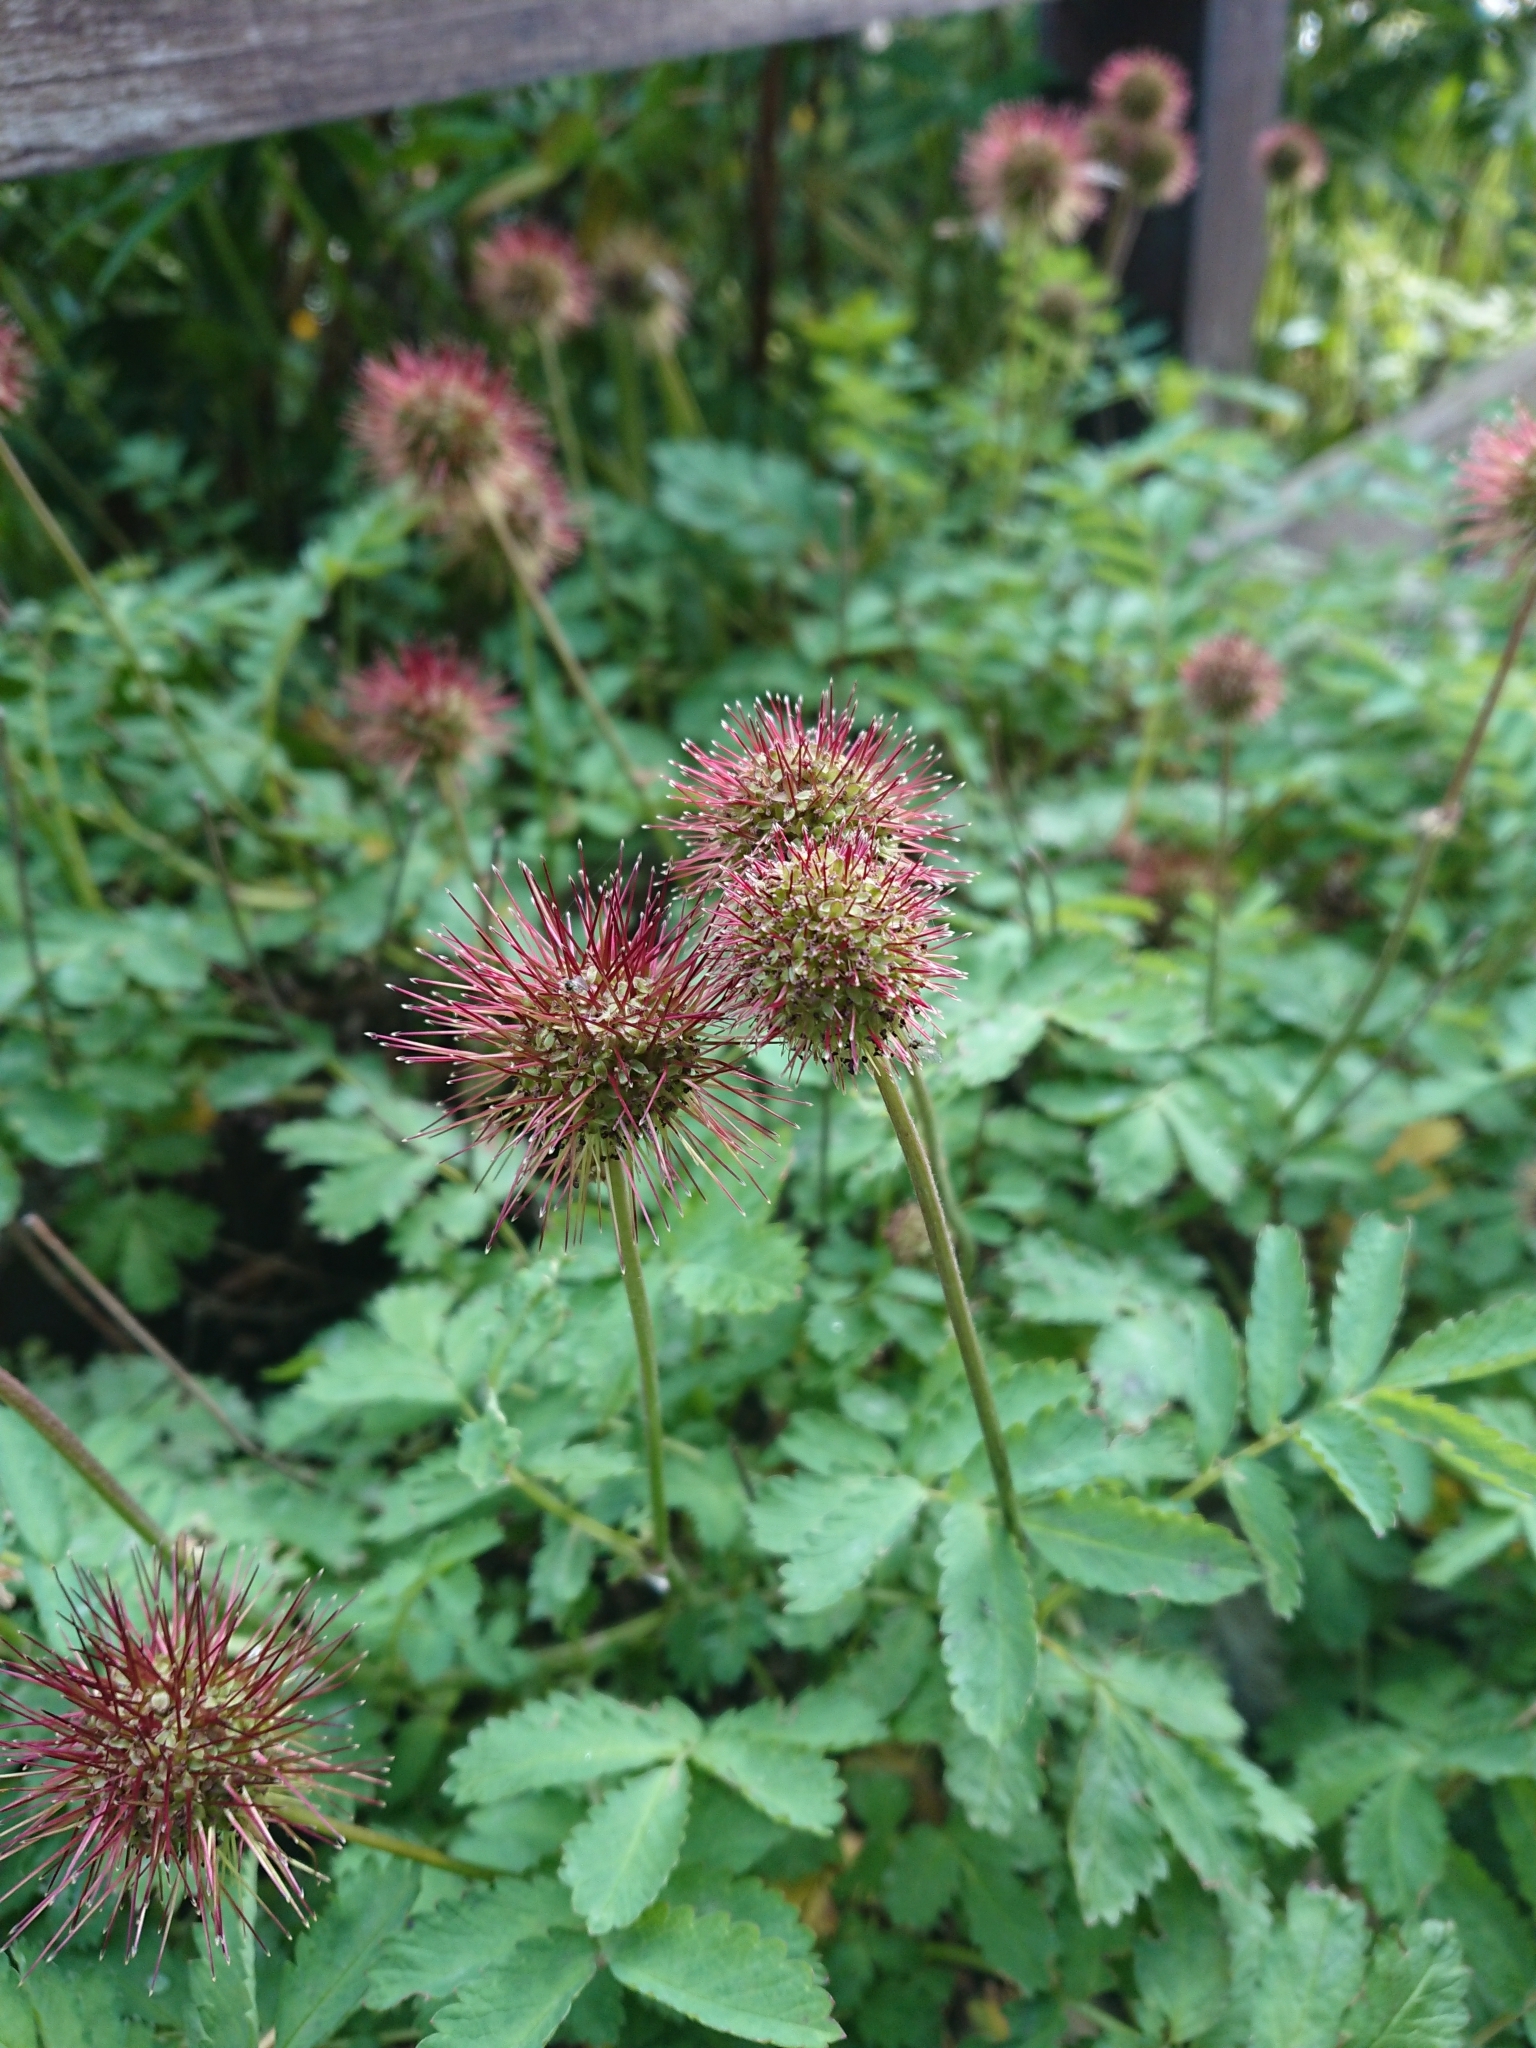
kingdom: Plantae
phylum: Tracheophyta
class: Magnoliopsida
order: Rosales
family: Rosaceae
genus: Acaena
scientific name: Acaena ovalifolia
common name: Two-spined acaena
